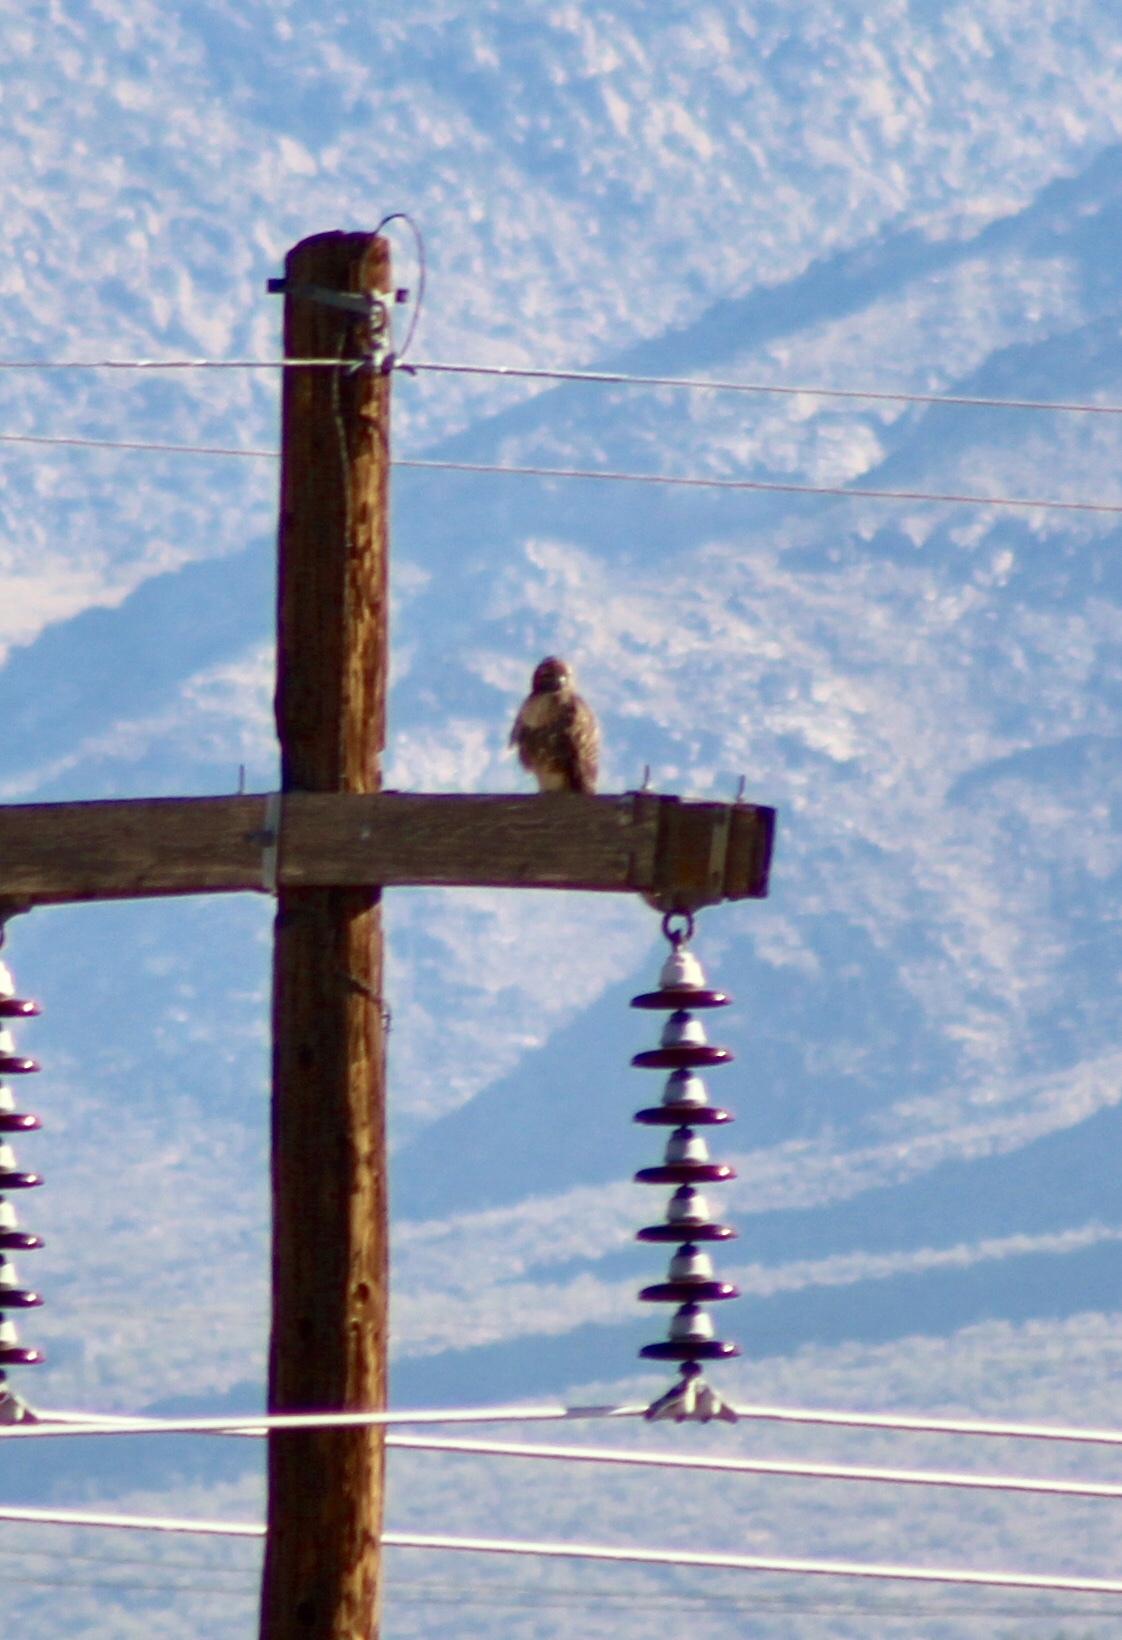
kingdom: Animalia
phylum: Chordata
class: Aves
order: Accipitriformes
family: Accipitridae
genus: Buteo
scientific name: Buteo jamaicensis
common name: Red-tailed hawk
